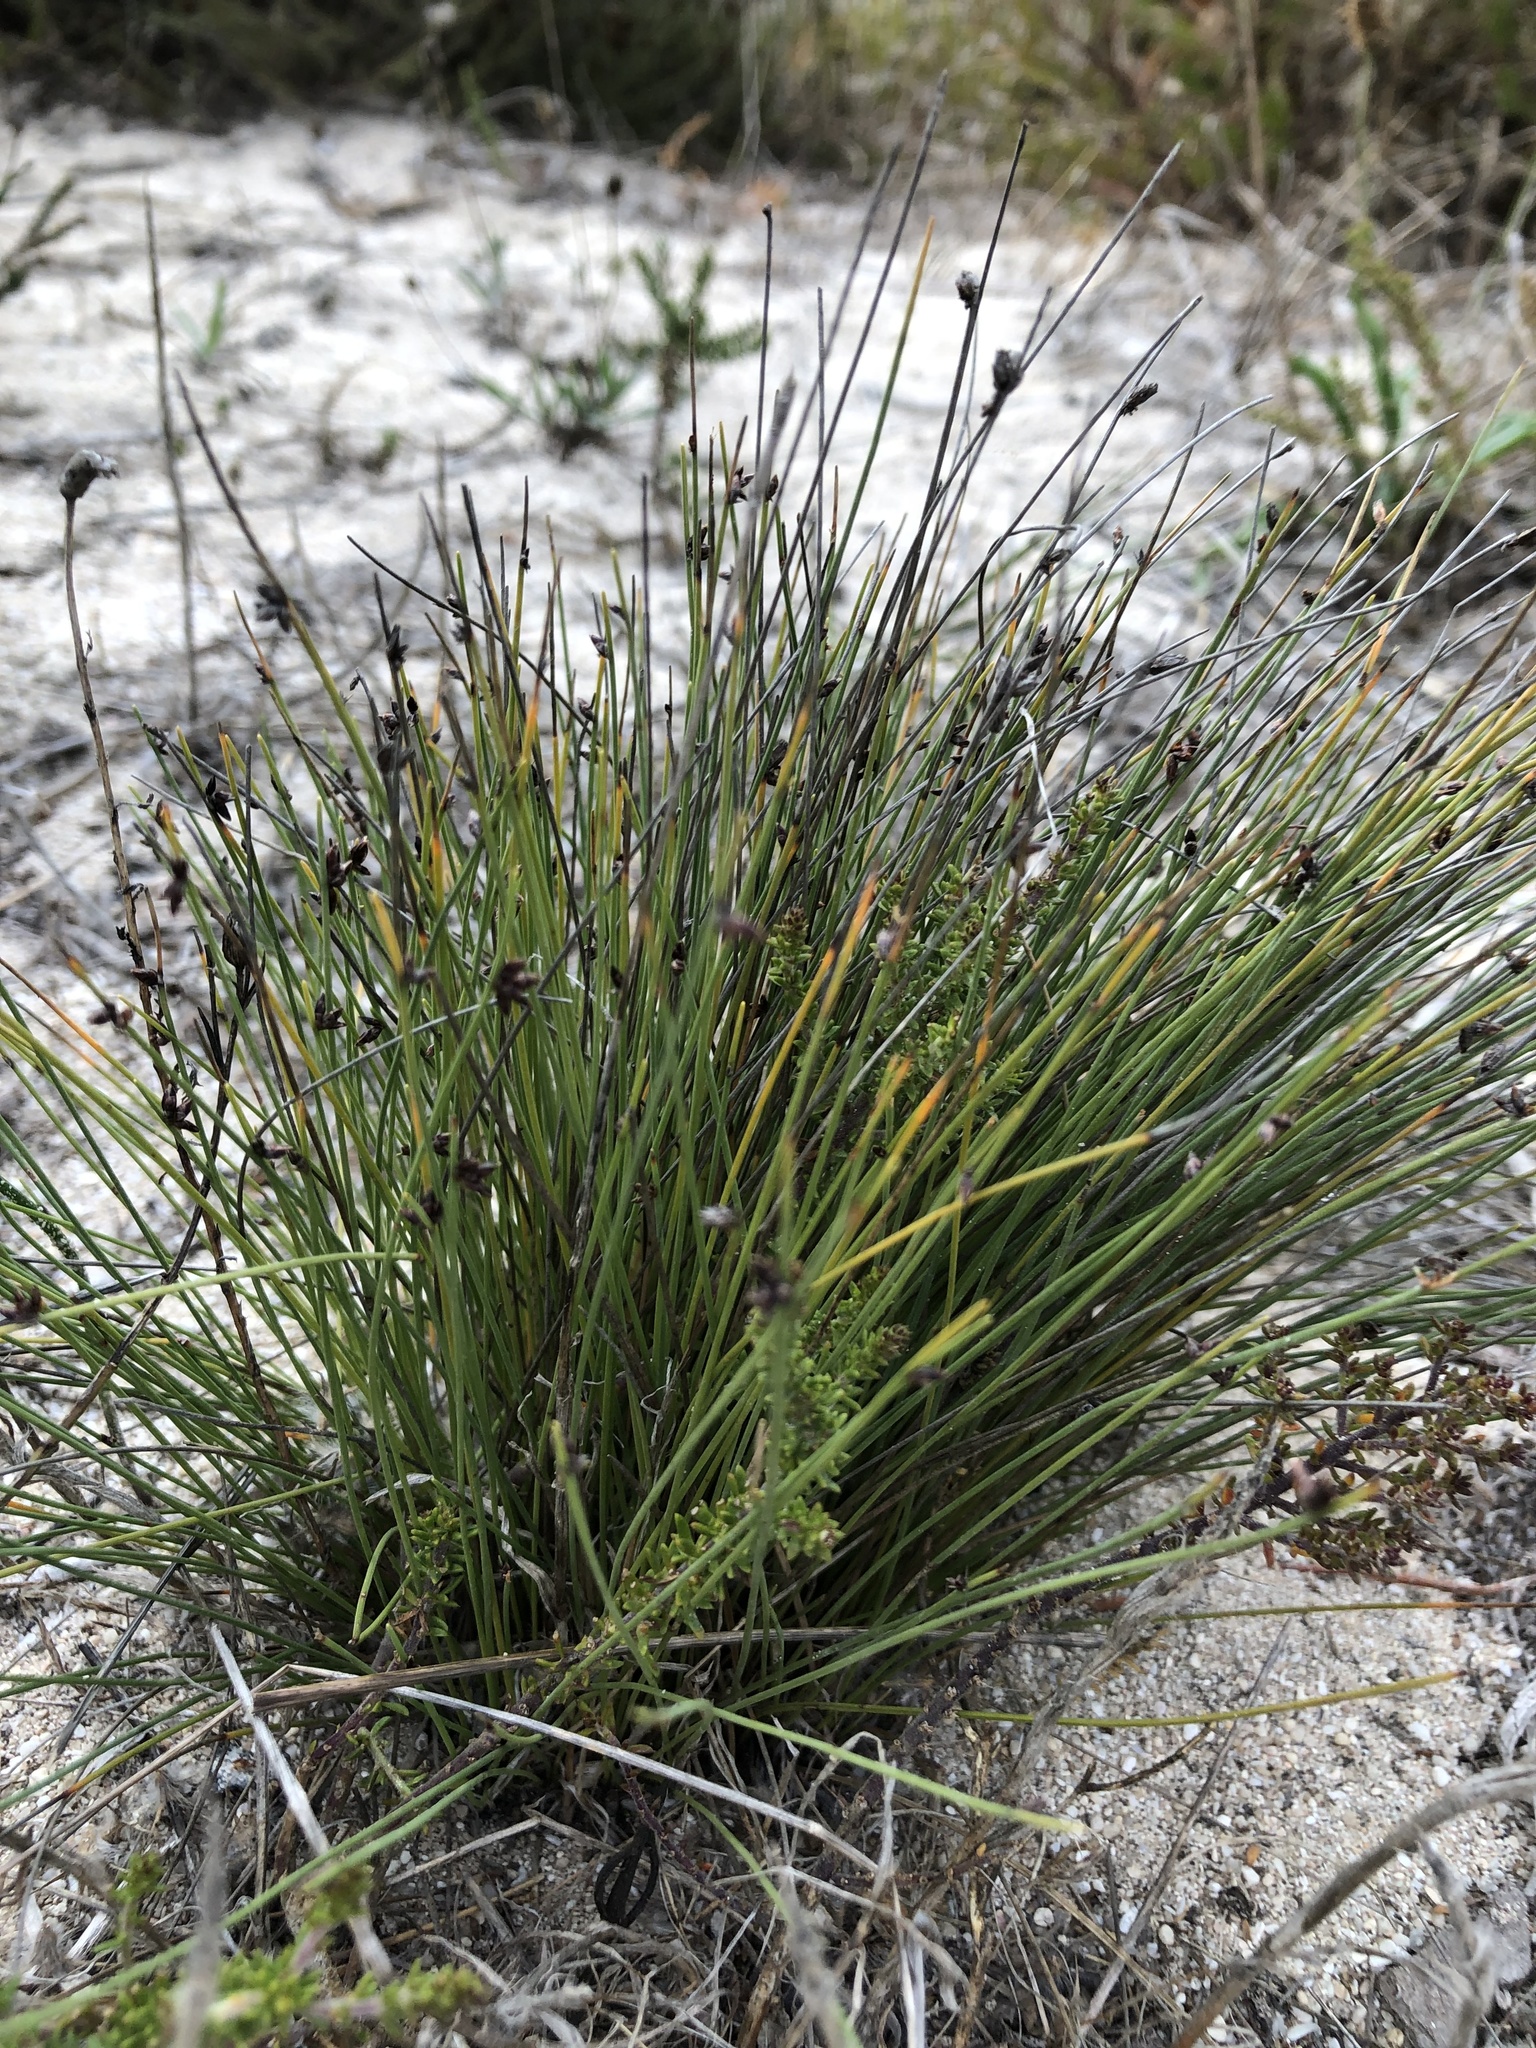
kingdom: Plantae
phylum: Tracheophyta
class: Liliopsida
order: Poales
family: Cyperaceae
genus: Ficinia
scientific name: Ficinia lateralis
